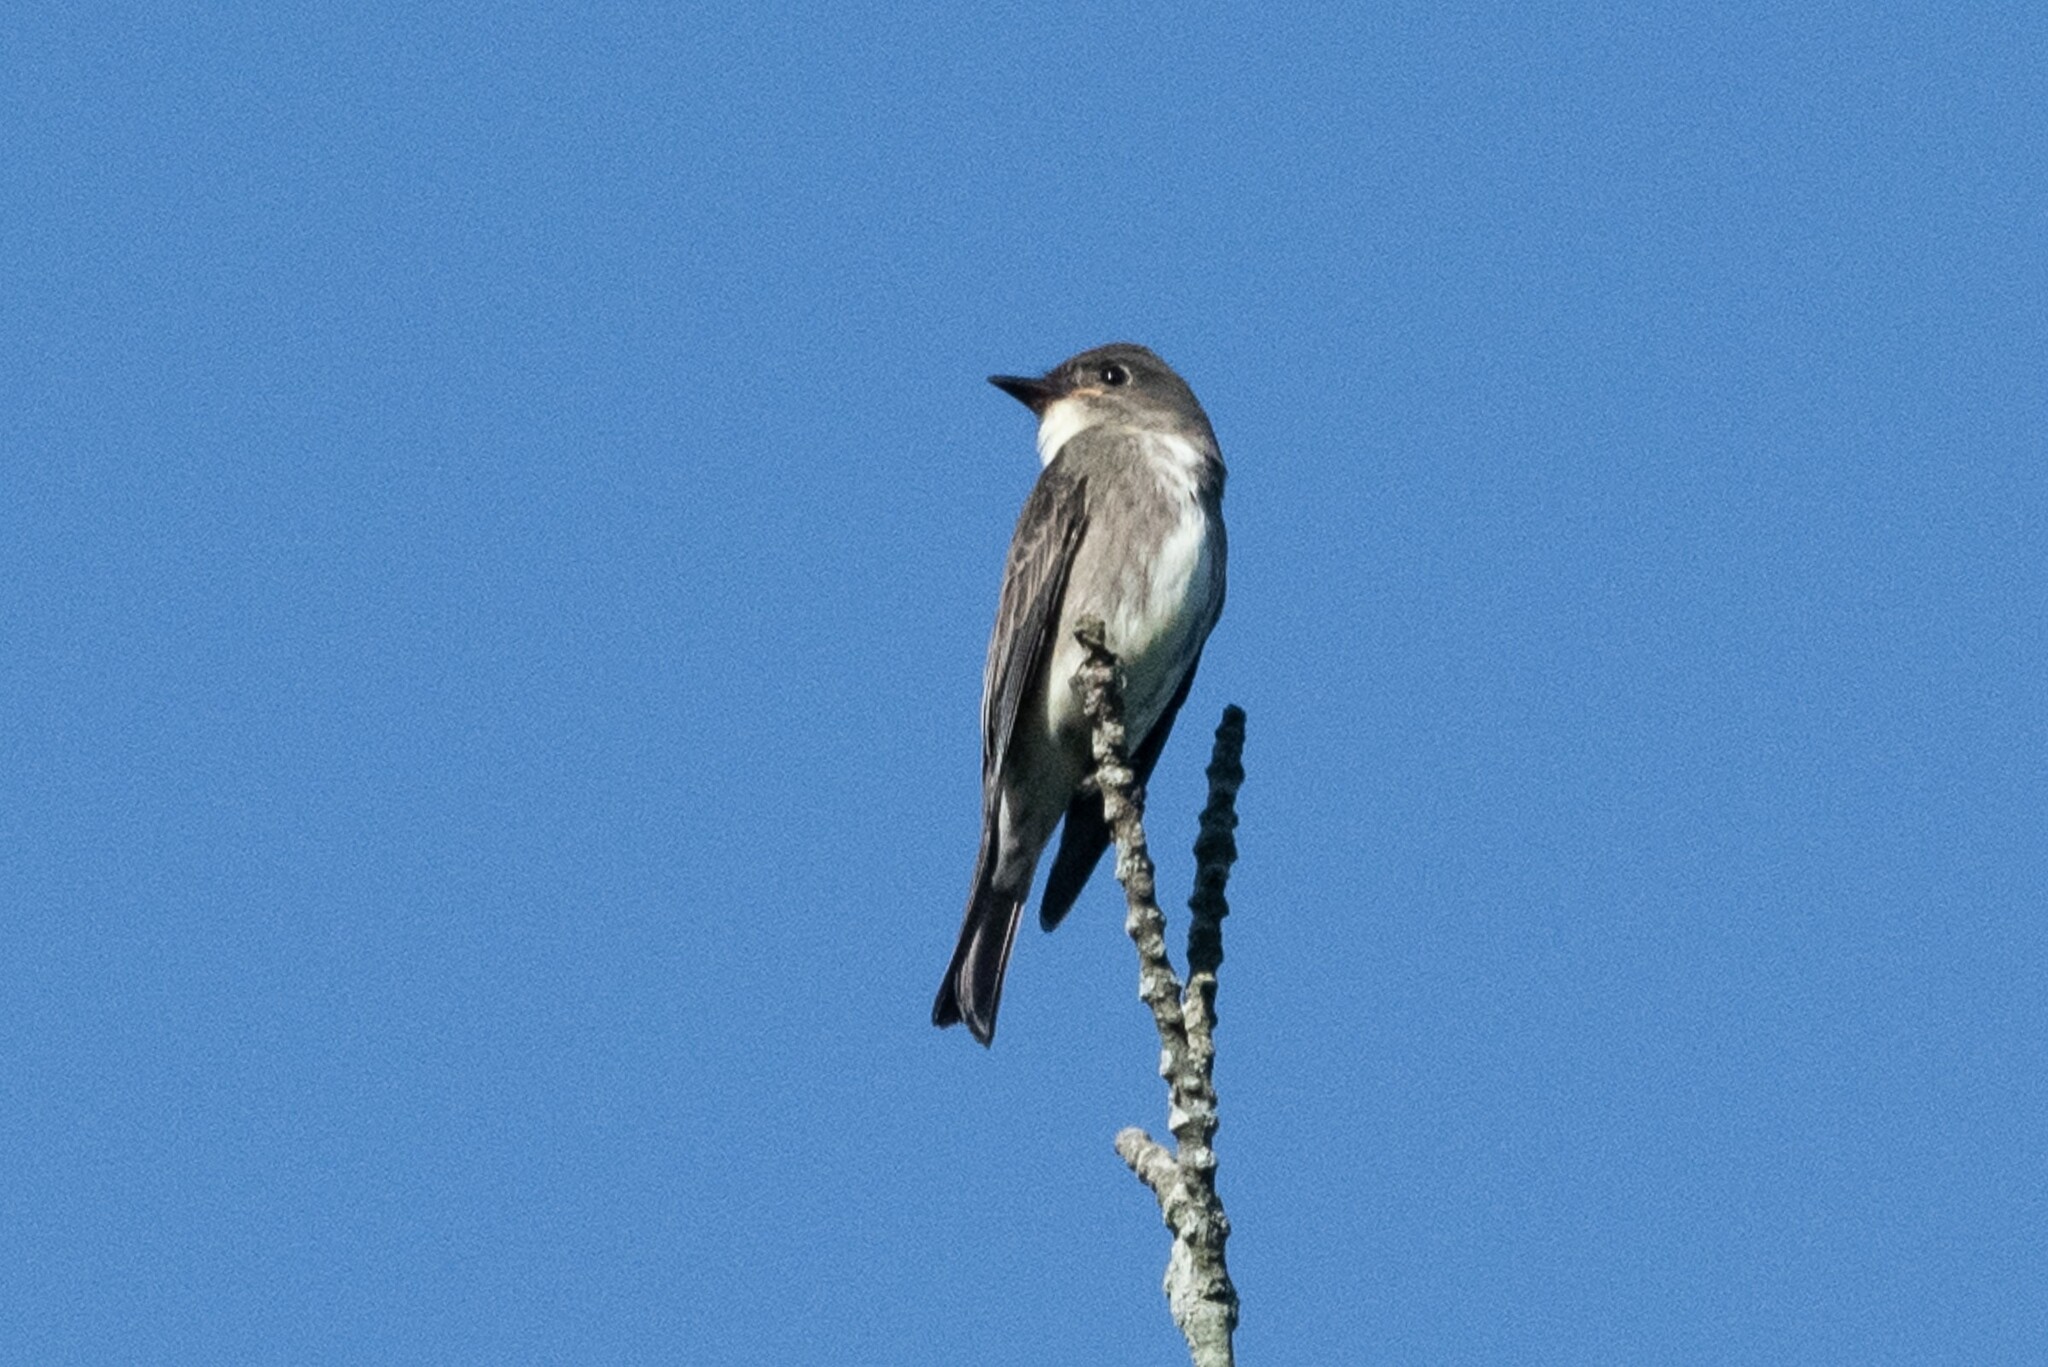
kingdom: Animalia
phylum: Chordata
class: Aves
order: Passeriformes
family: Tyrannidae
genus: Contopus
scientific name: Contopus cooperi
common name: Olive-sided flycatcher
